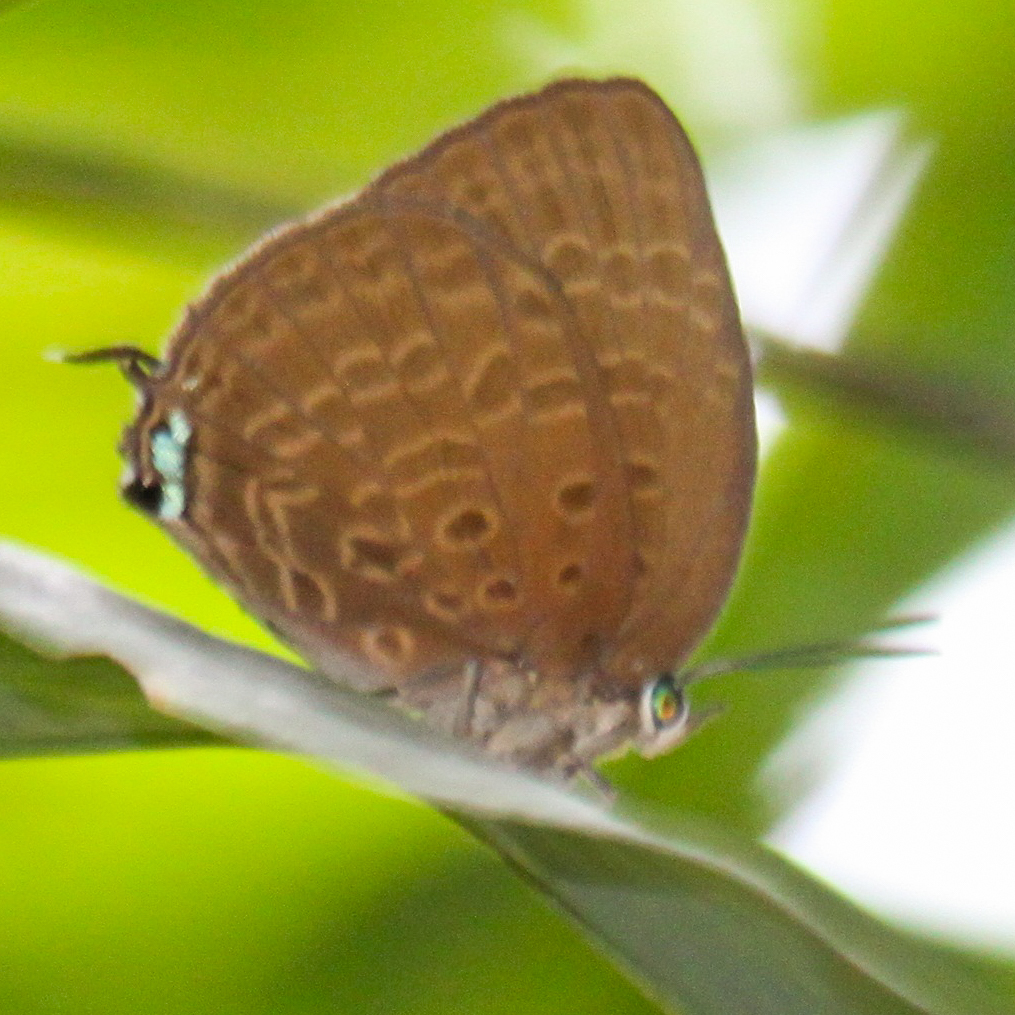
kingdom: Animalia
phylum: Arthropoda
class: Insecta
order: Lepidoptera
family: Lycaenidae
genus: Arhopala
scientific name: Arhopala atosia
